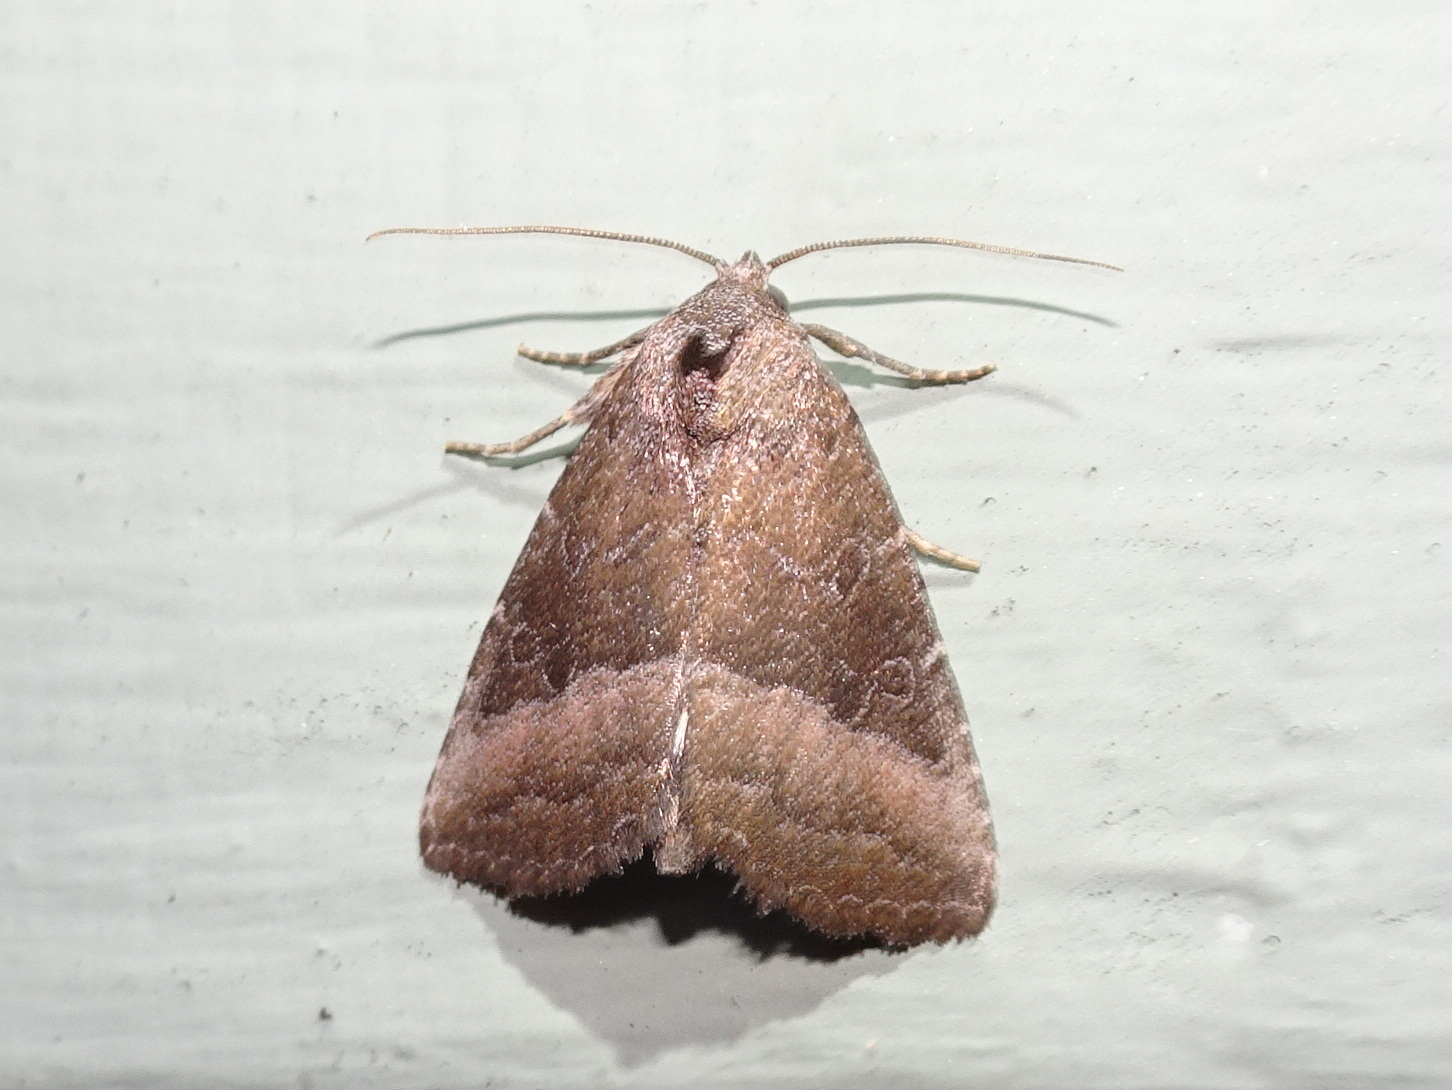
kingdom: Animalia
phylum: Arthropoda
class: Insecta
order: Lepidoptera
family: Noctuidae
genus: Ogdoconta
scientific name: Ogdoconta cinereola
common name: Common pinkband
